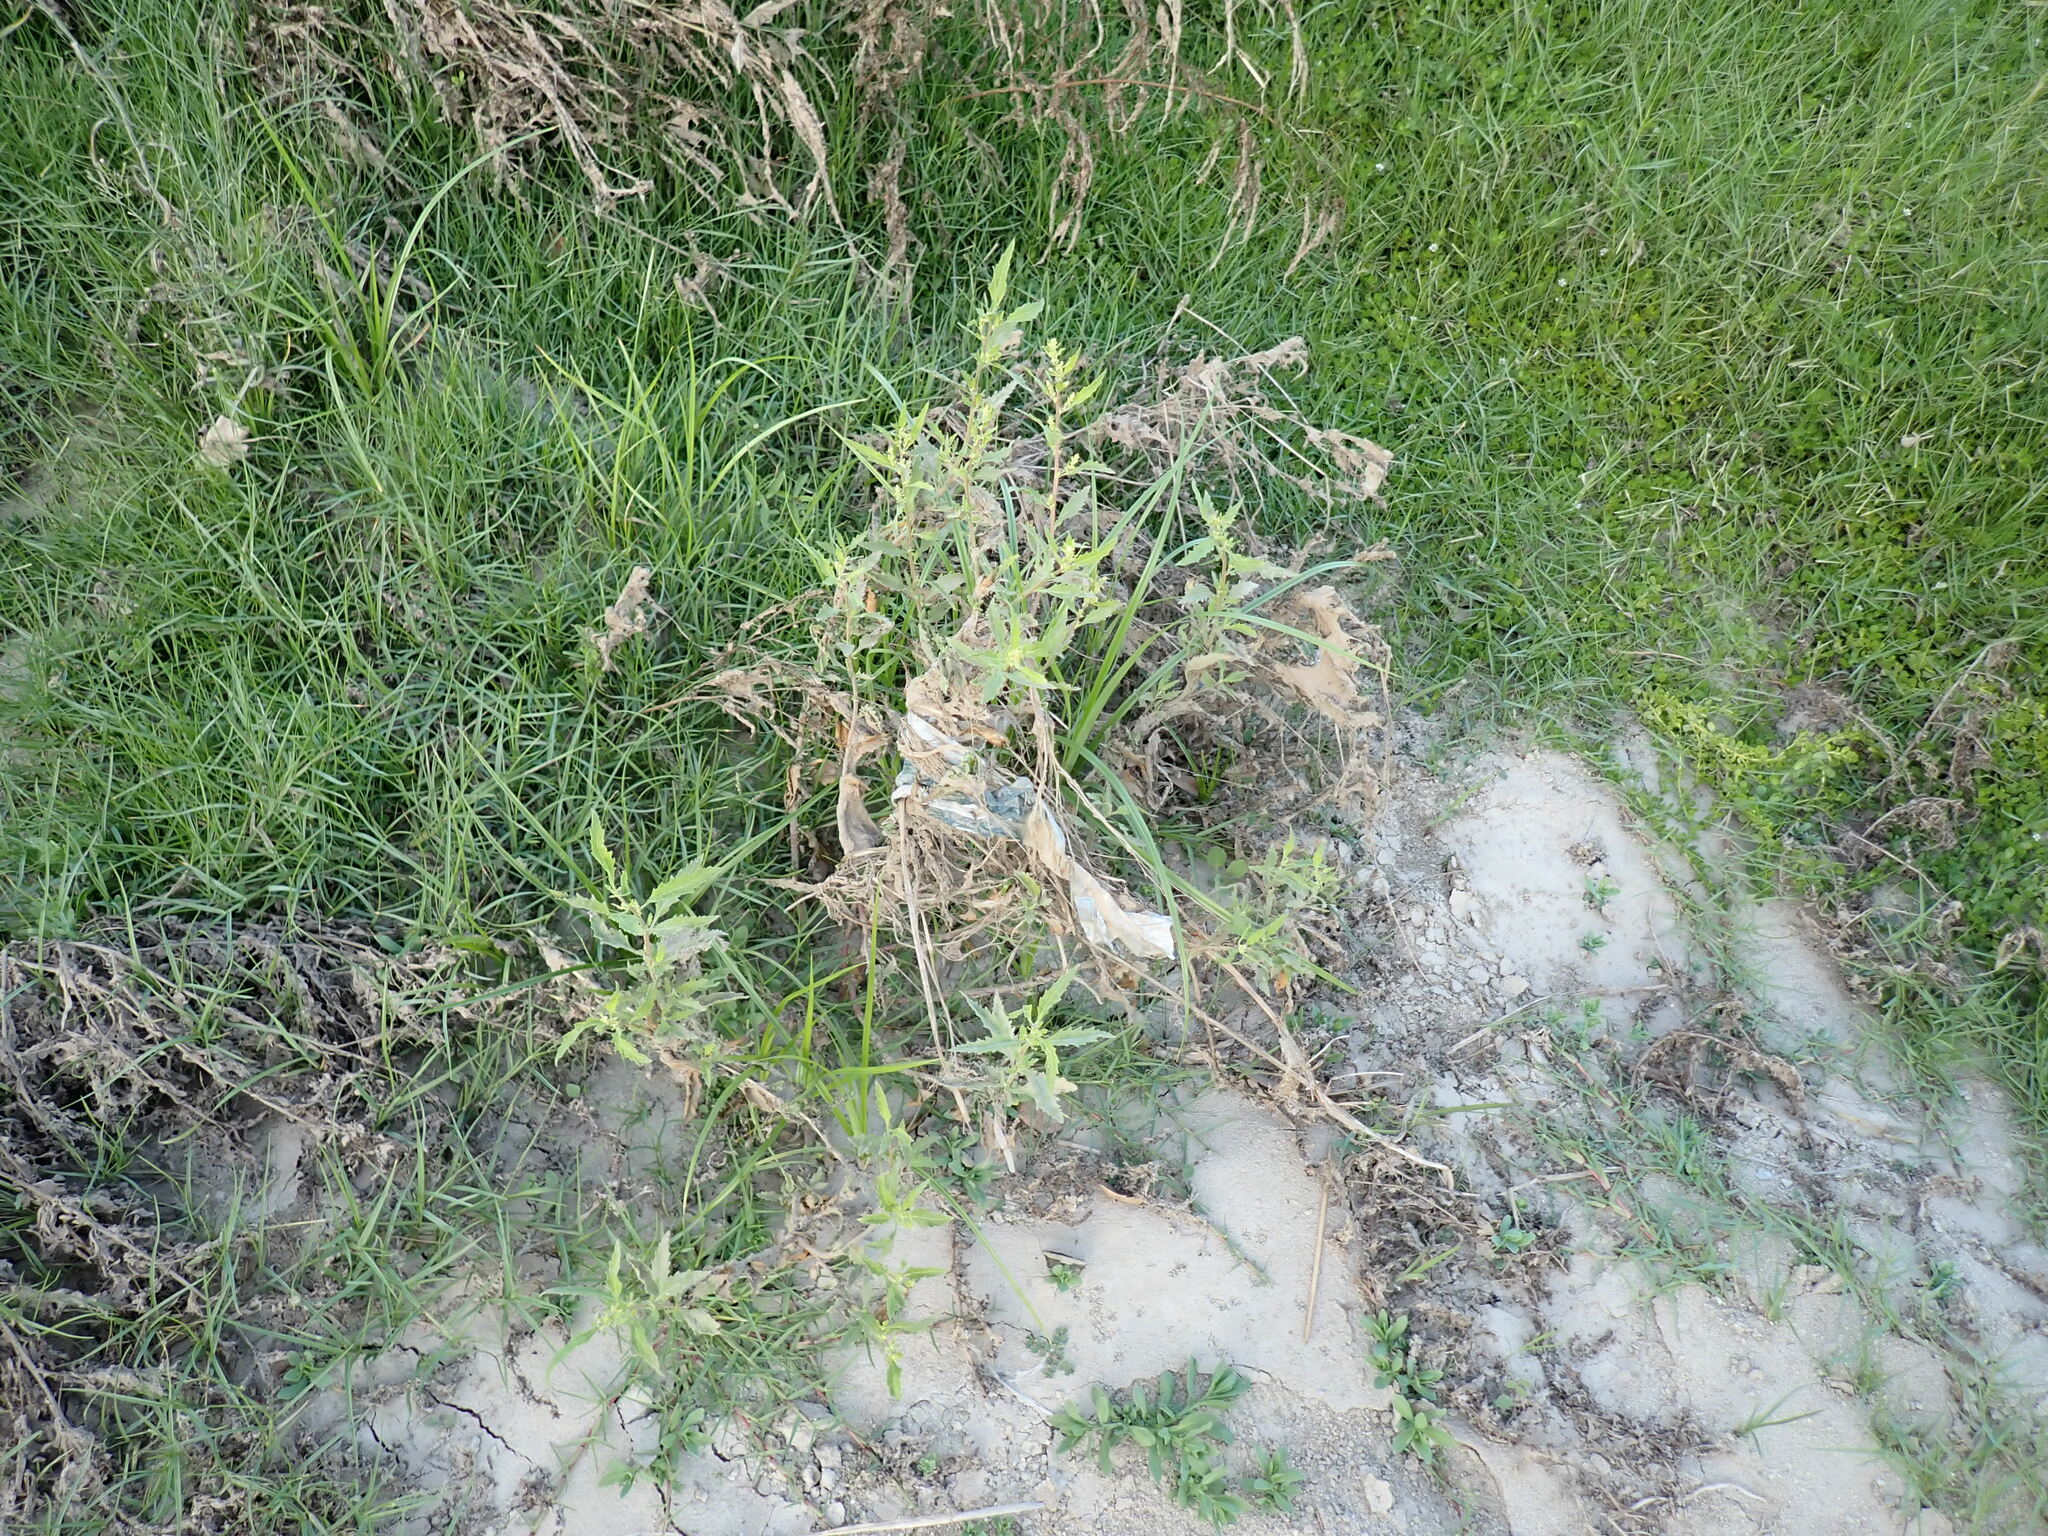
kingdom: Plantae
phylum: Tracheophyta
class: Magnoliopsida
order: Caryophyllales
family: Amaranthaceae
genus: Dysphania
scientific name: Dysphania ambrosioides
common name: Wormseed
